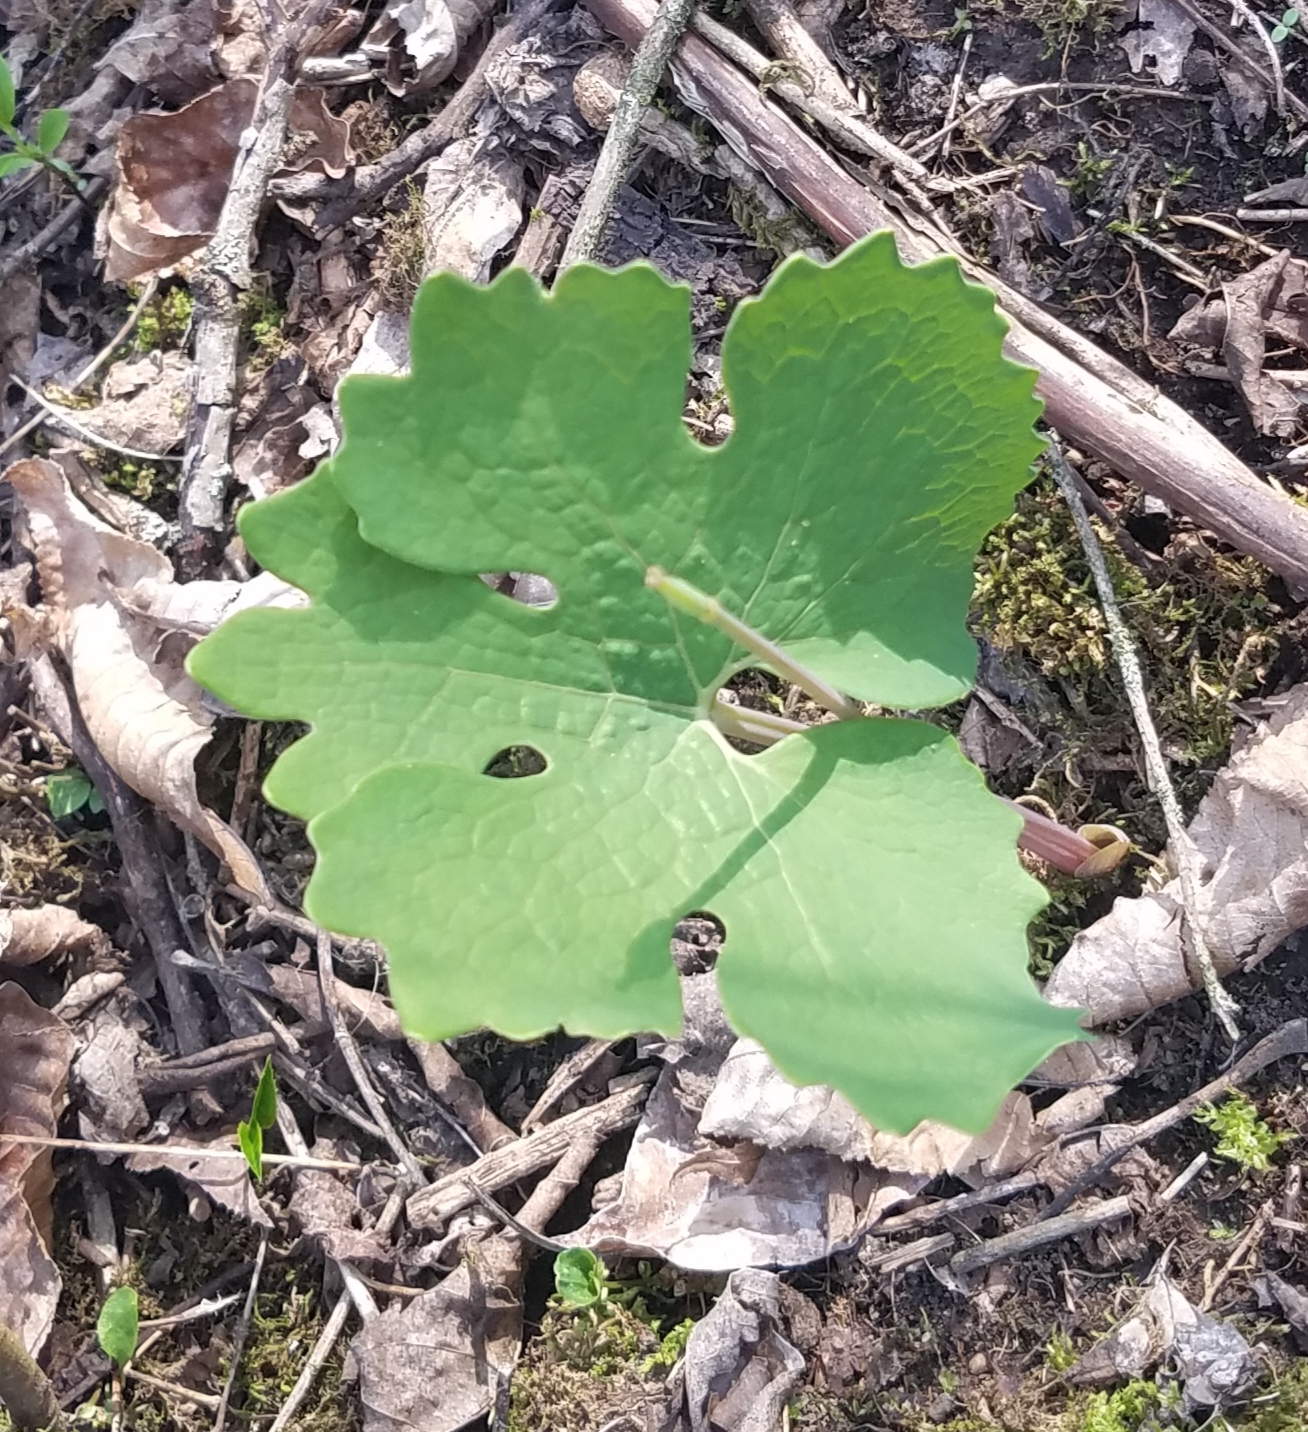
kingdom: Plantae
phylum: Tracheophyta
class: Magnoliopsida
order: Ranunculales
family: Papaveraceae
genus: Sanguinaria
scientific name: Sanguinaria canadensis
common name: Bloodroot
